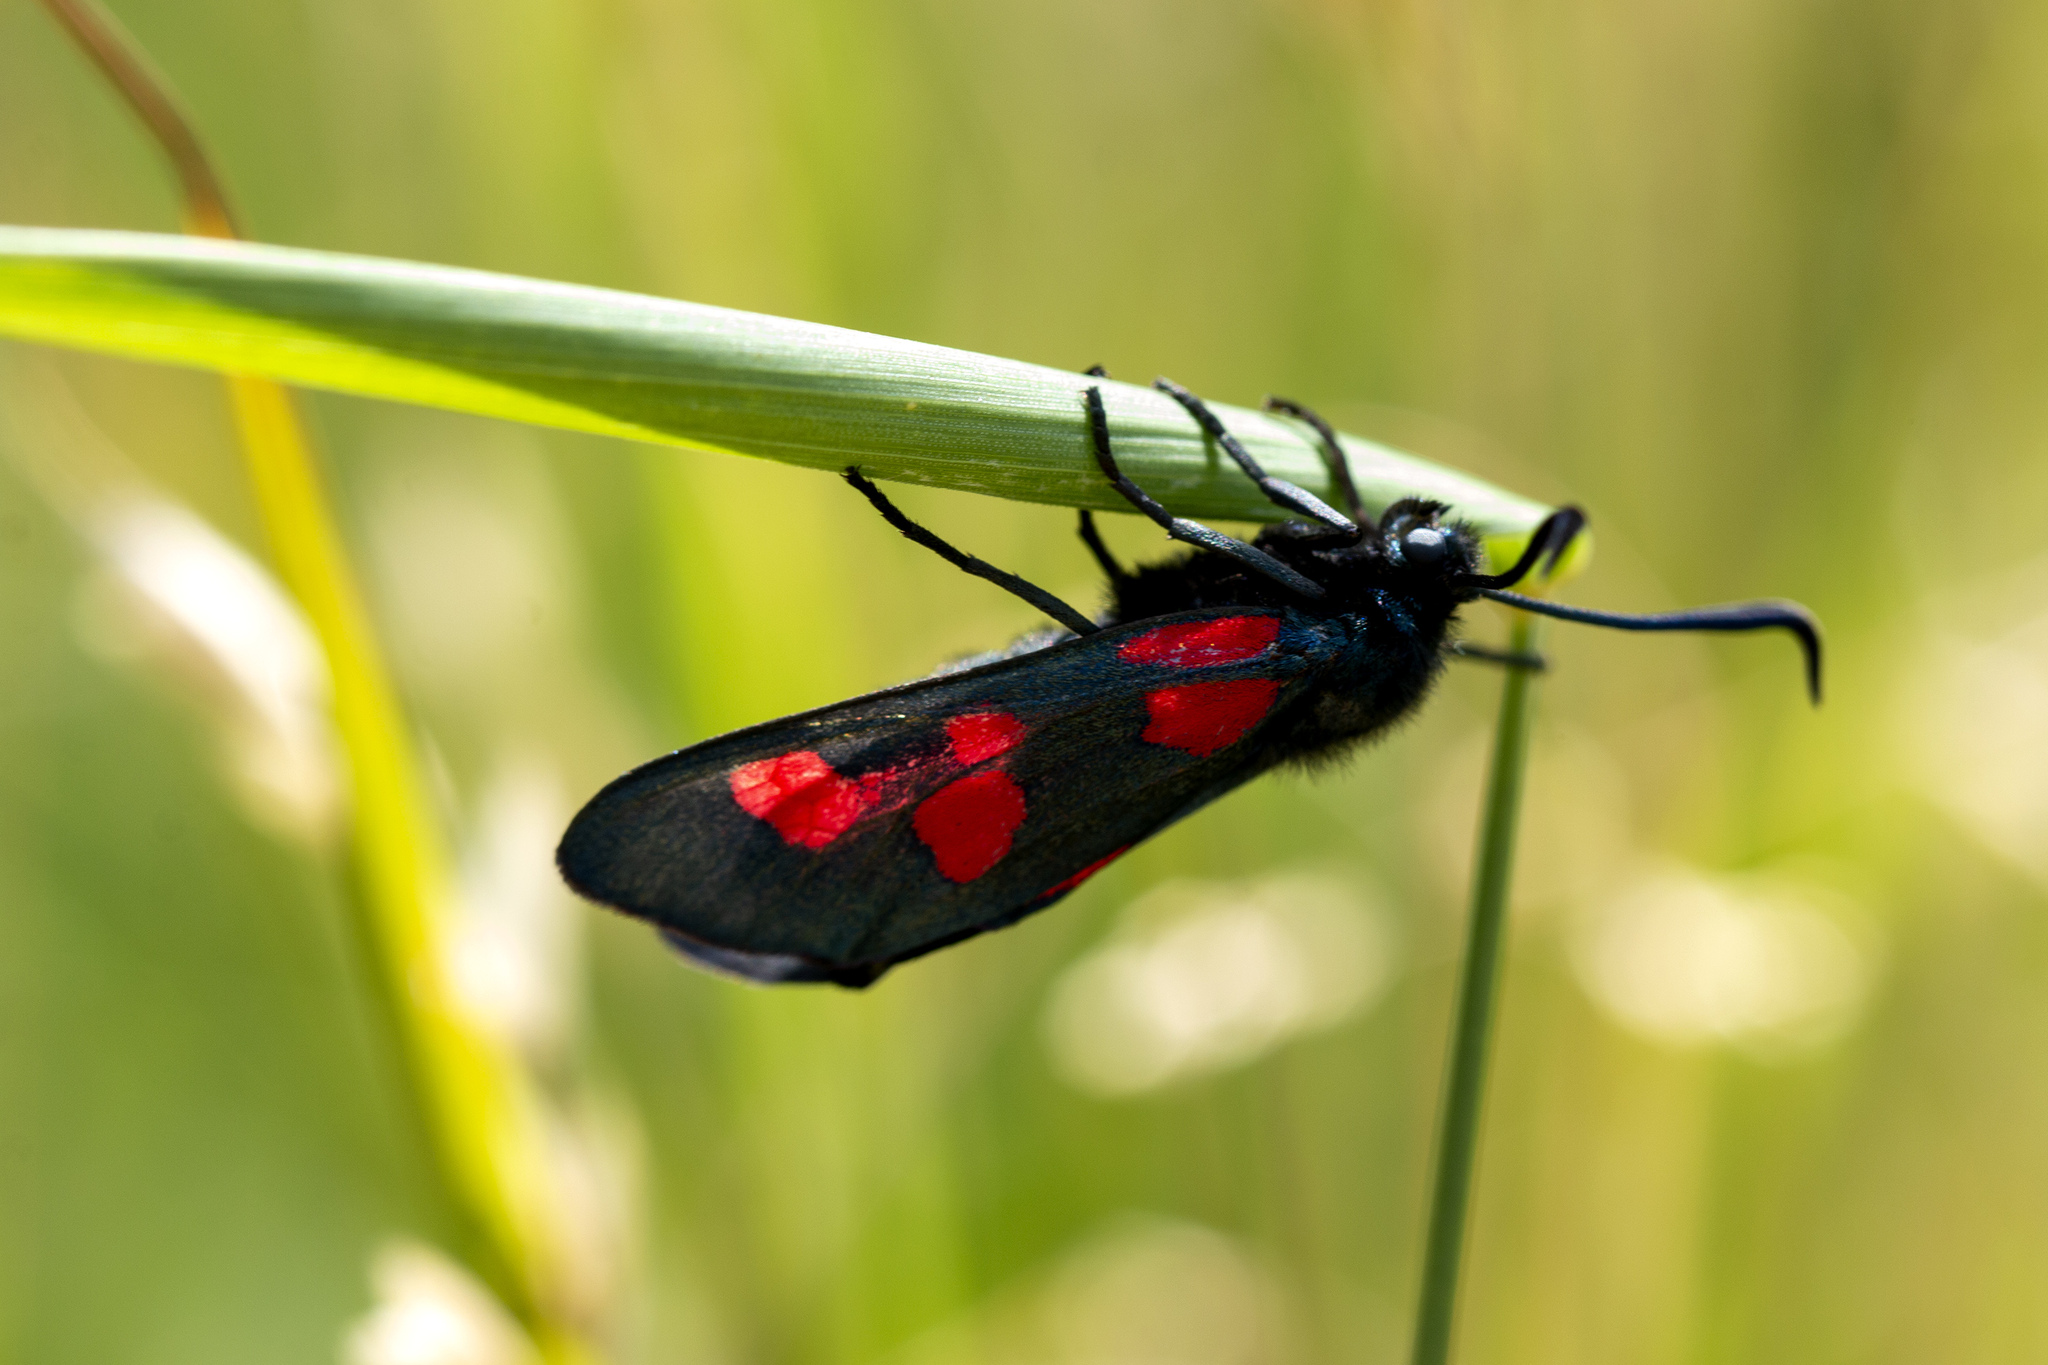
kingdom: Animalia
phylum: Arthropoda
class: Insecta
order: Lepidoptera
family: Zygaenidae
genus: Zygaena
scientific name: Zygaena trifolii
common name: Five-spot burnet
